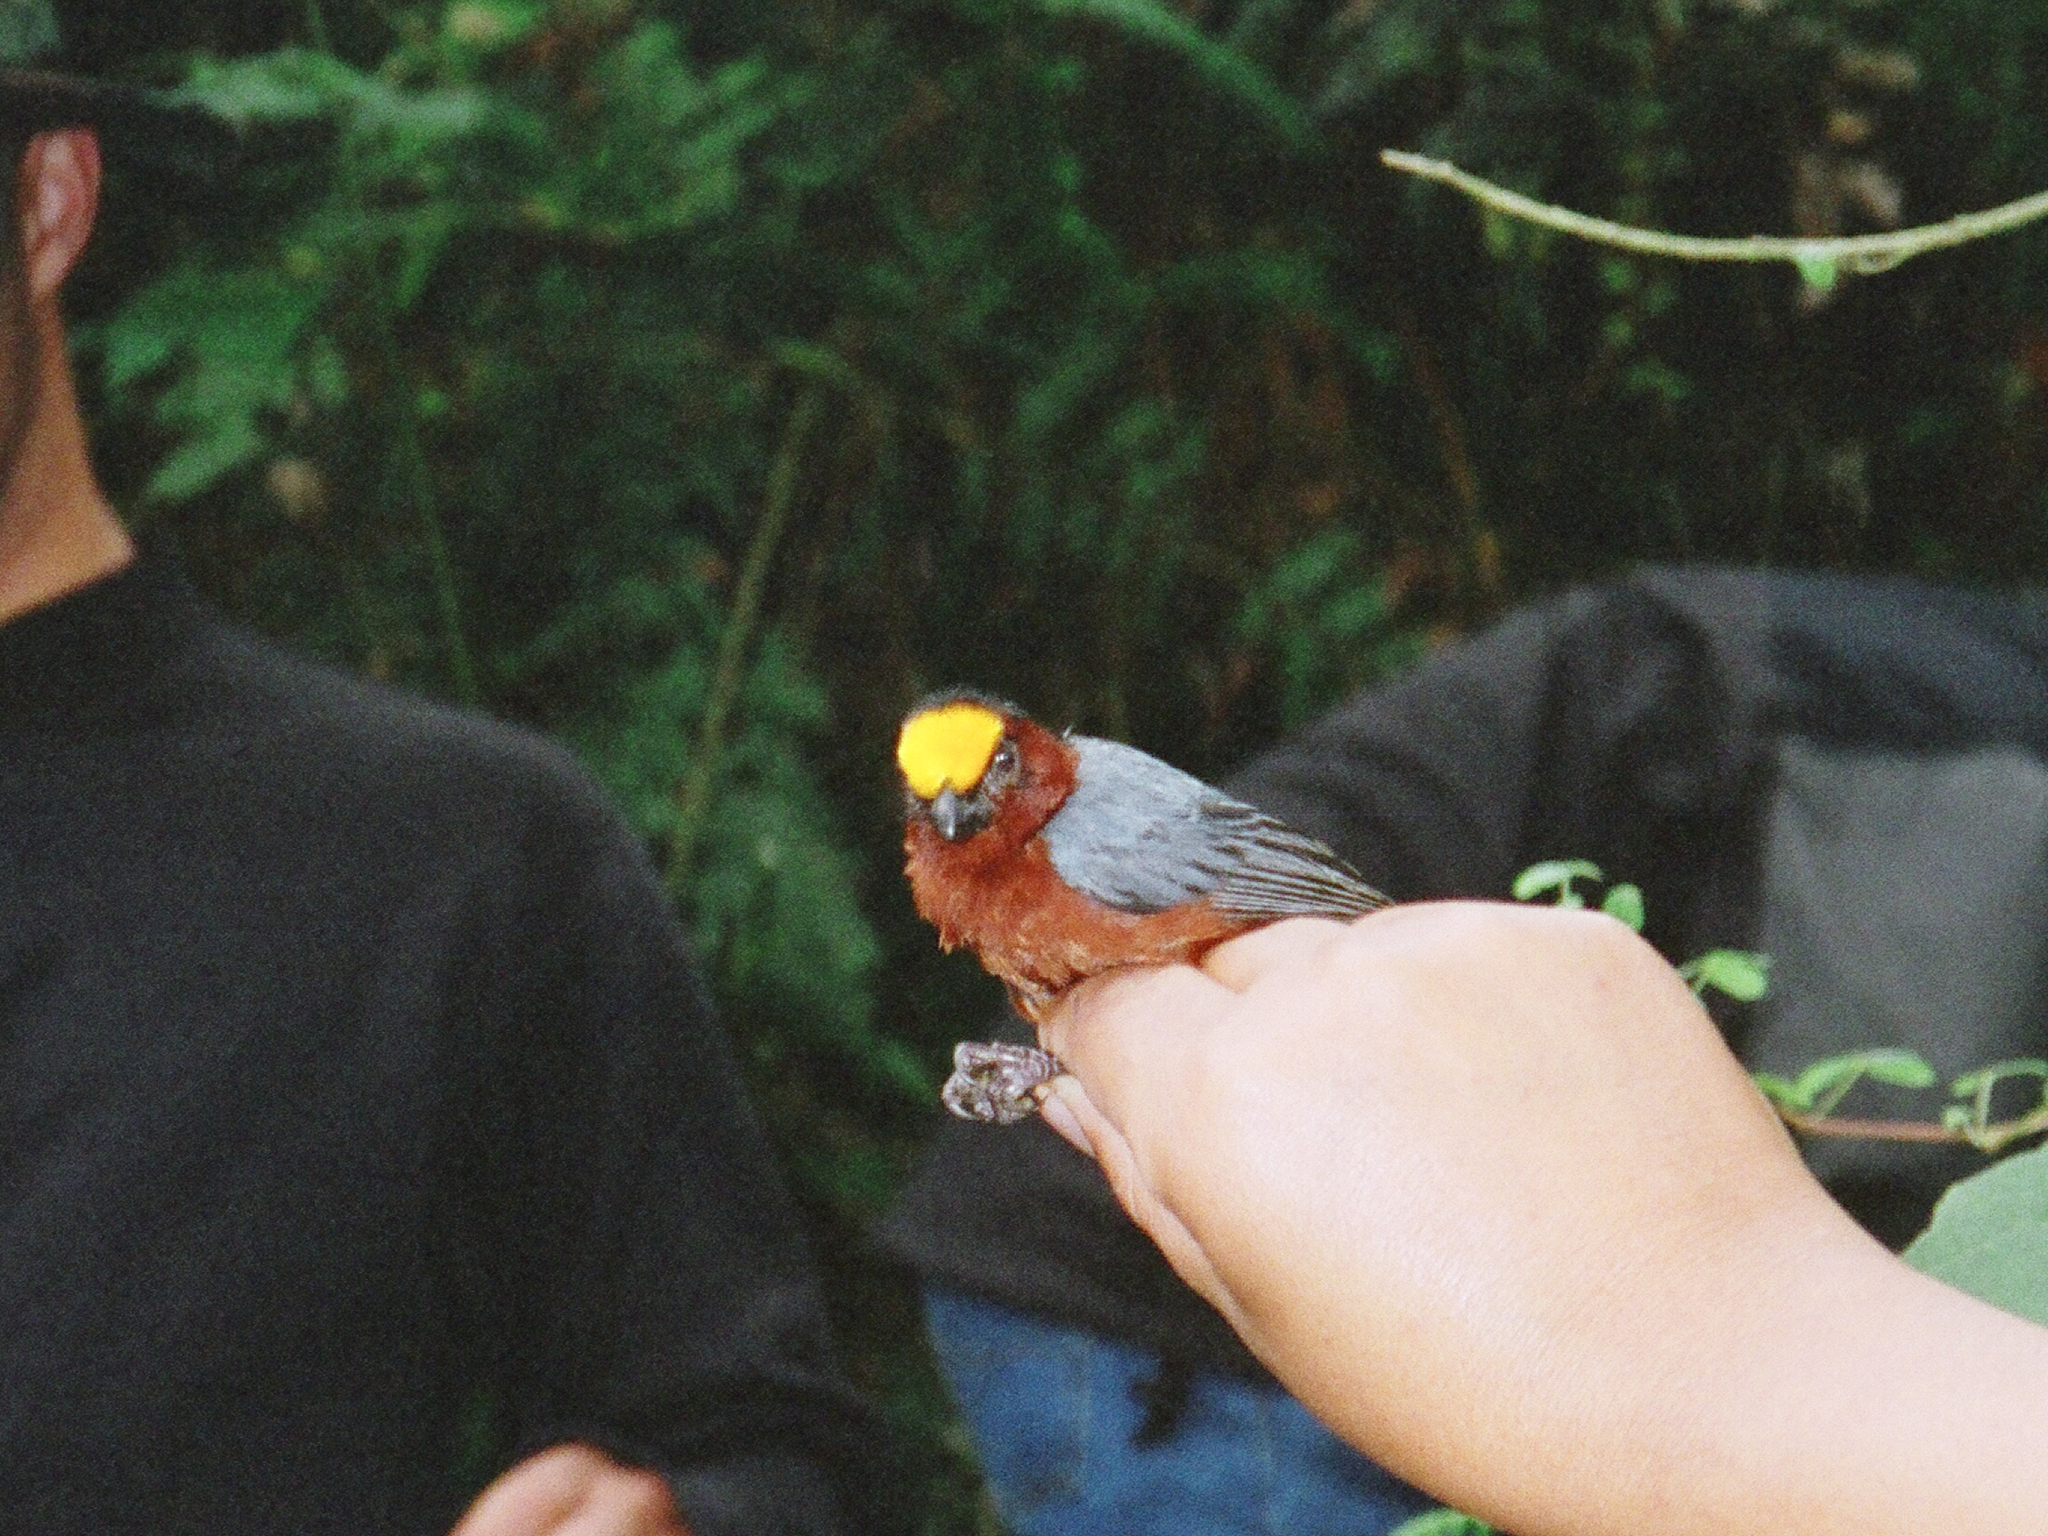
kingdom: Animalia
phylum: Chordata
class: Aves
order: Passeriformes
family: Thraupidae
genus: Catamblyrhynchus
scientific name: Catamblyrhynchus diadema
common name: Plushcap
